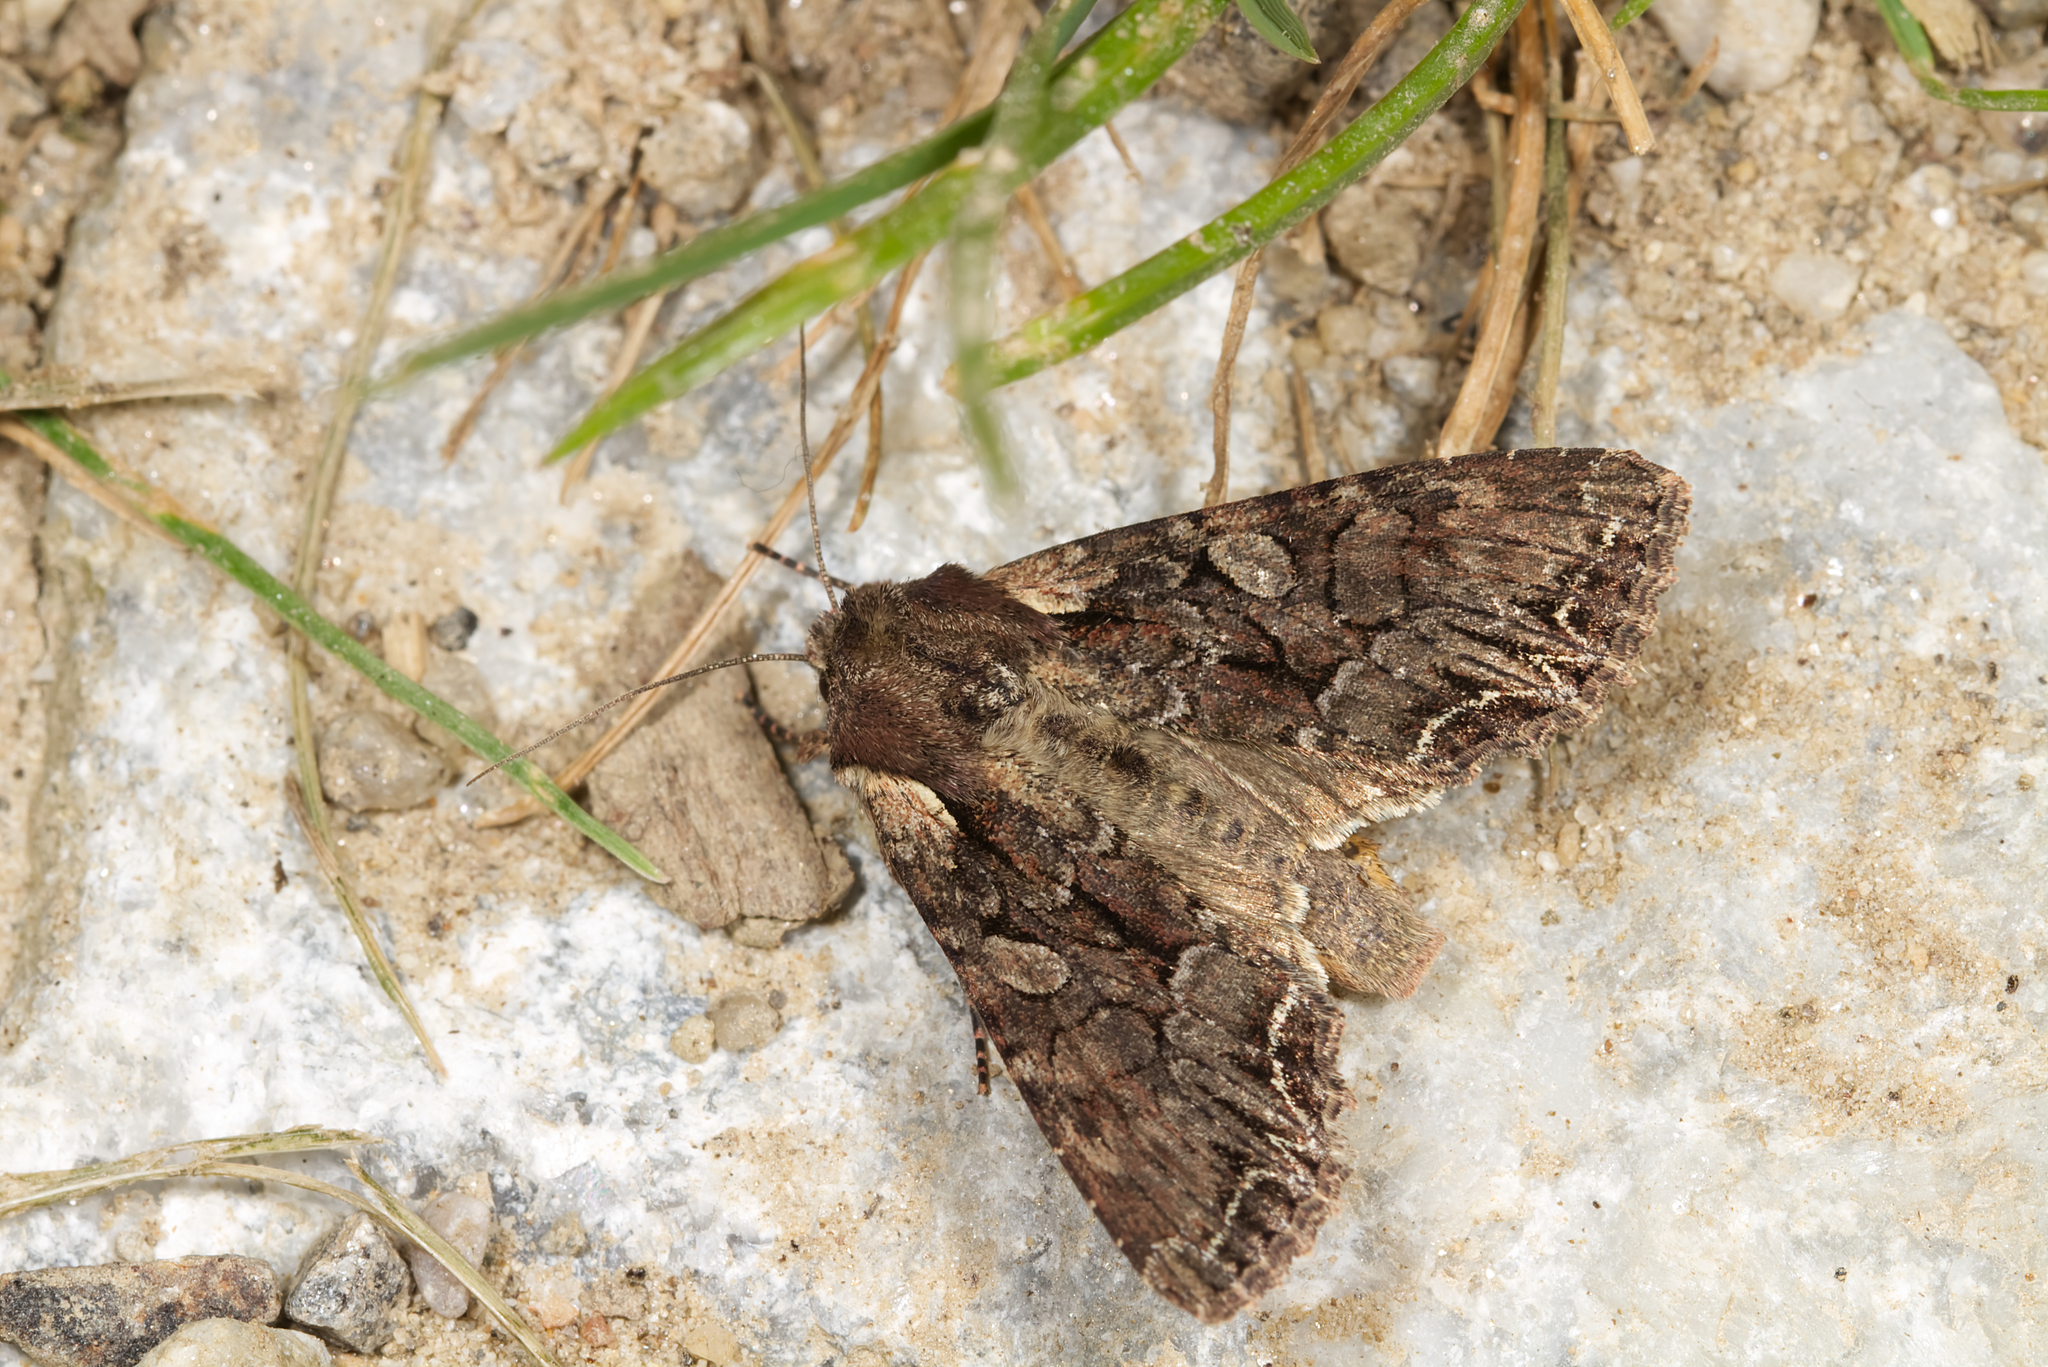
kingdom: Animalia
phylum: Arthropoda
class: Insecta
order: Lepidoptera
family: Noctuidae
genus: Lacanobia
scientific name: Lacanobia thalassina
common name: Pale-shouldered brocade
